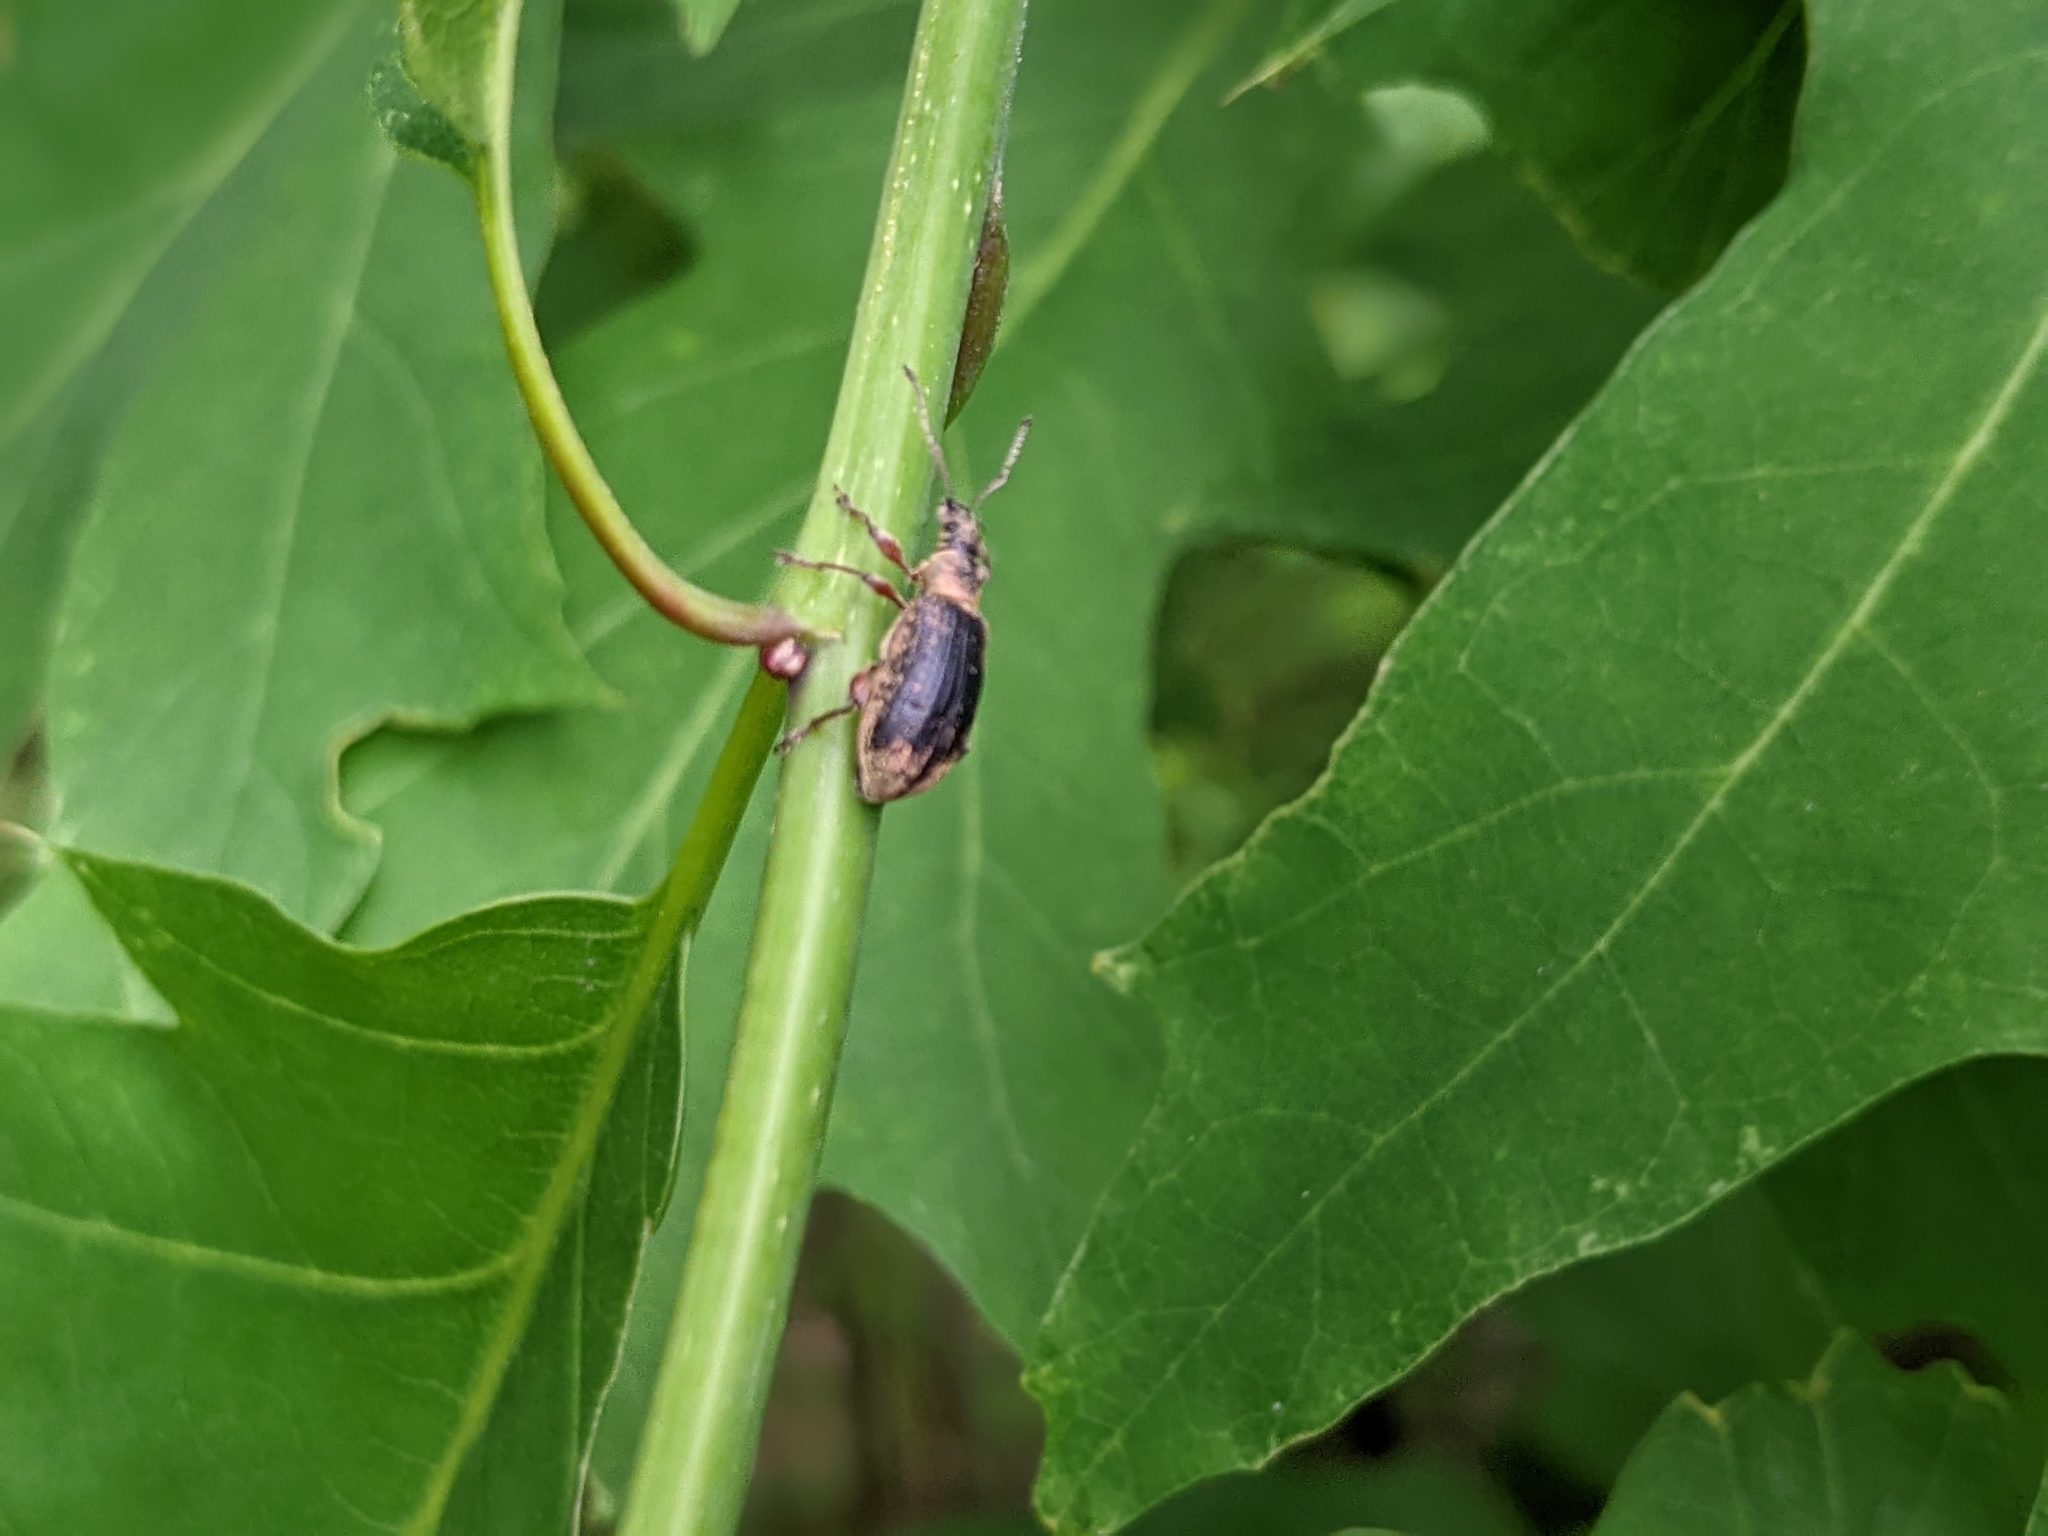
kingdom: Animalia
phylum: Arthropoda
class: Insecta
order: Coleoptera
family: Curculionidae
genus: Phyllobius
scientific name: Phyllobius pyri
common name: Common leaf weevil
